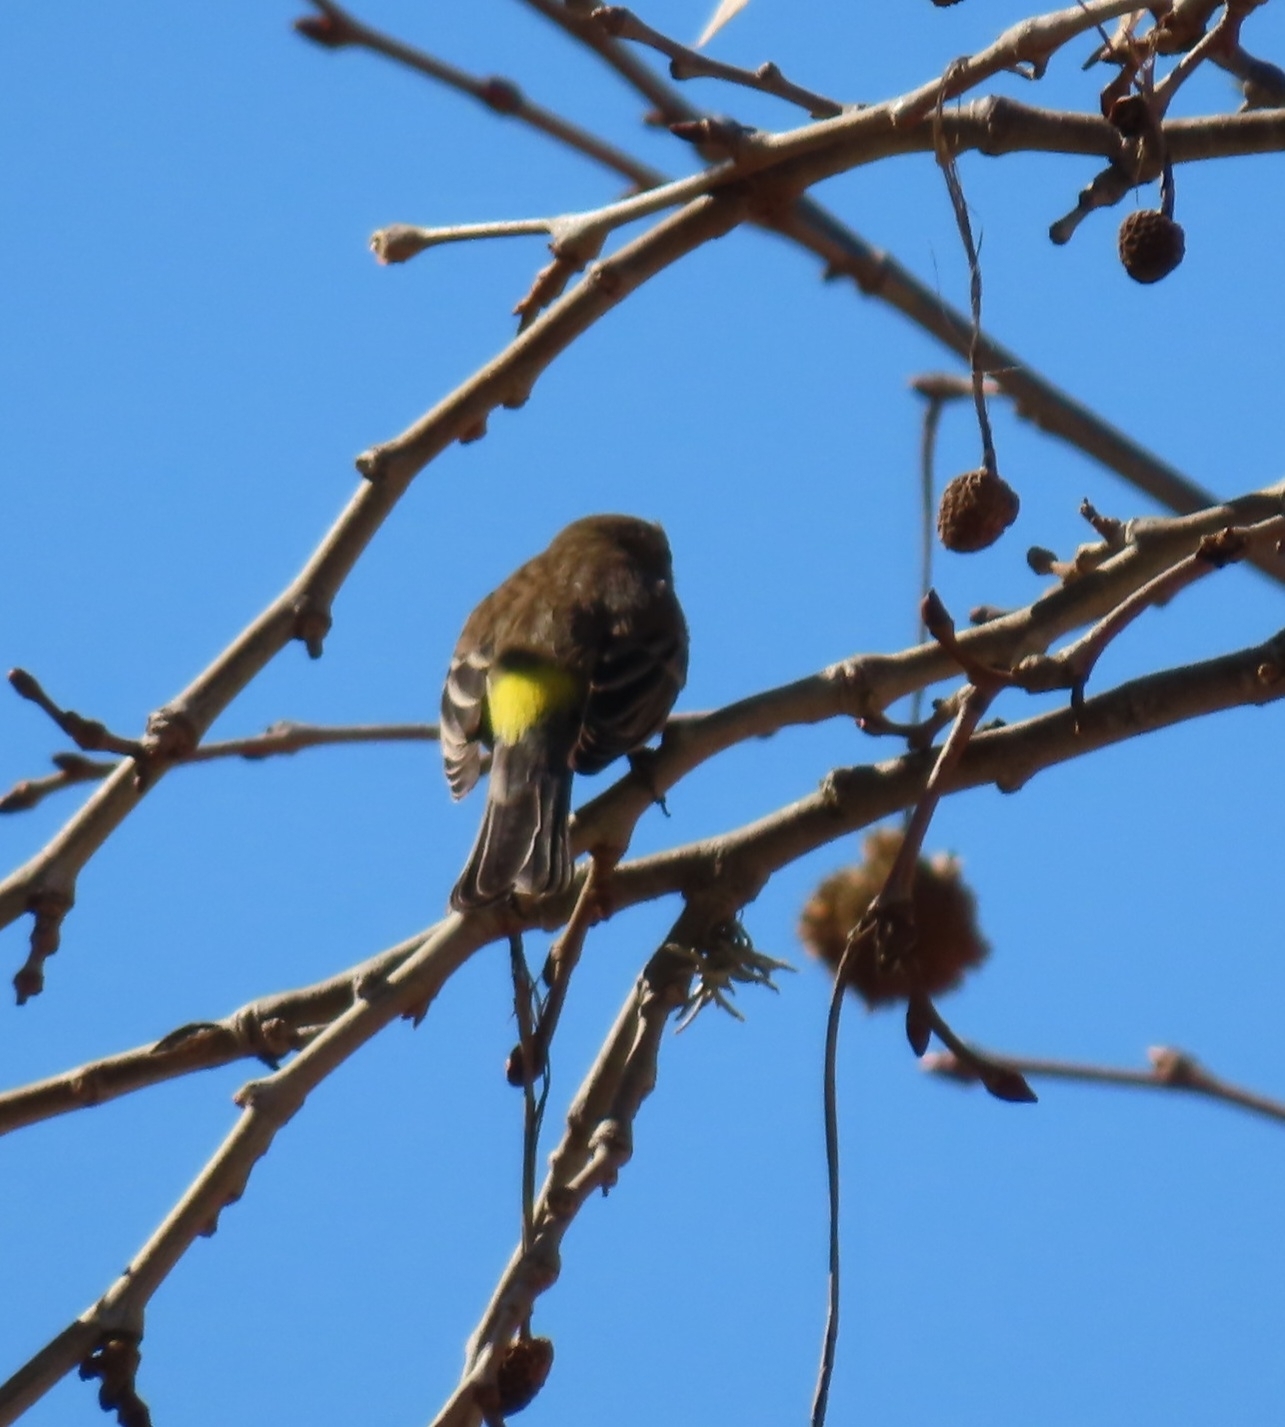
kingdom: Animalia
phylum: Chordata
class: Aves
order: Passeriformes
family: Parulidae
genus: Setophaga
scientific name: Setophaga coronata
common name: Myrtle warbler
